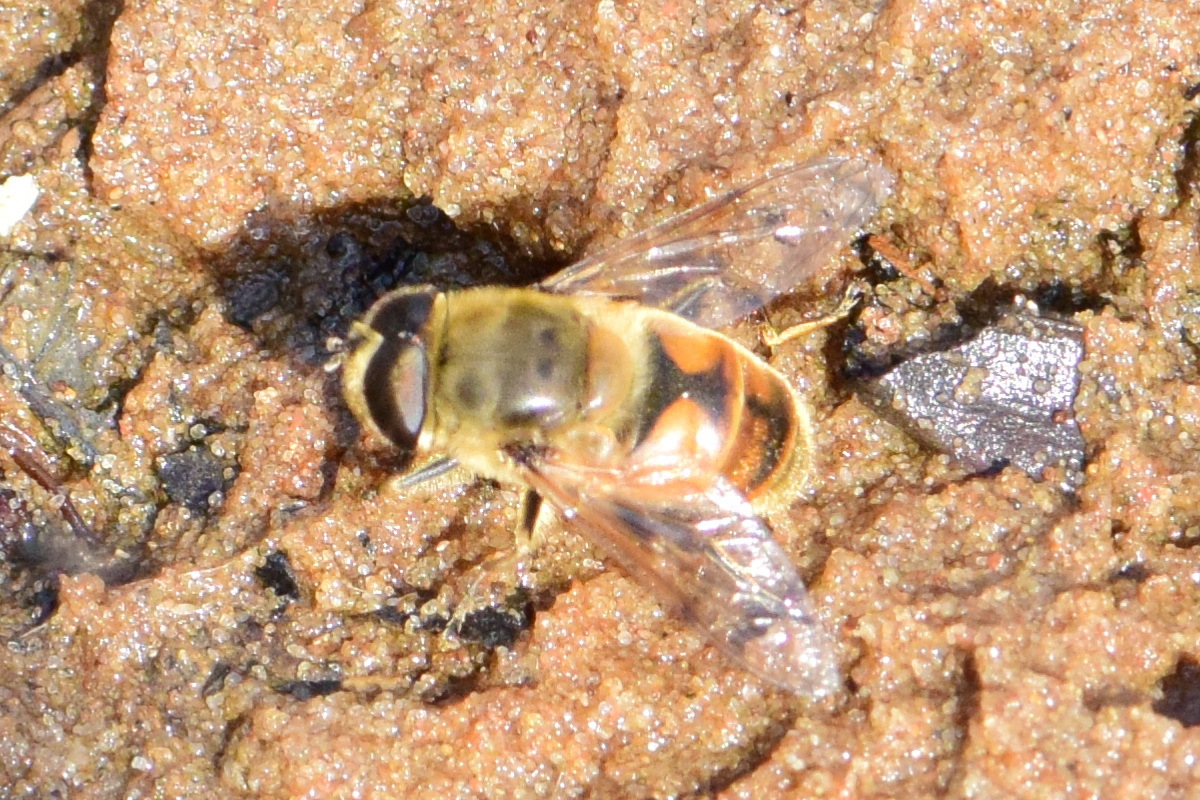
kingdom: Animalia
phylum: Arthropoda
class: Insecta
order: Diptera
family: Syrphidae
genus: Eristalis
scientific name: Eristalis tenax
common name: Drone fly
